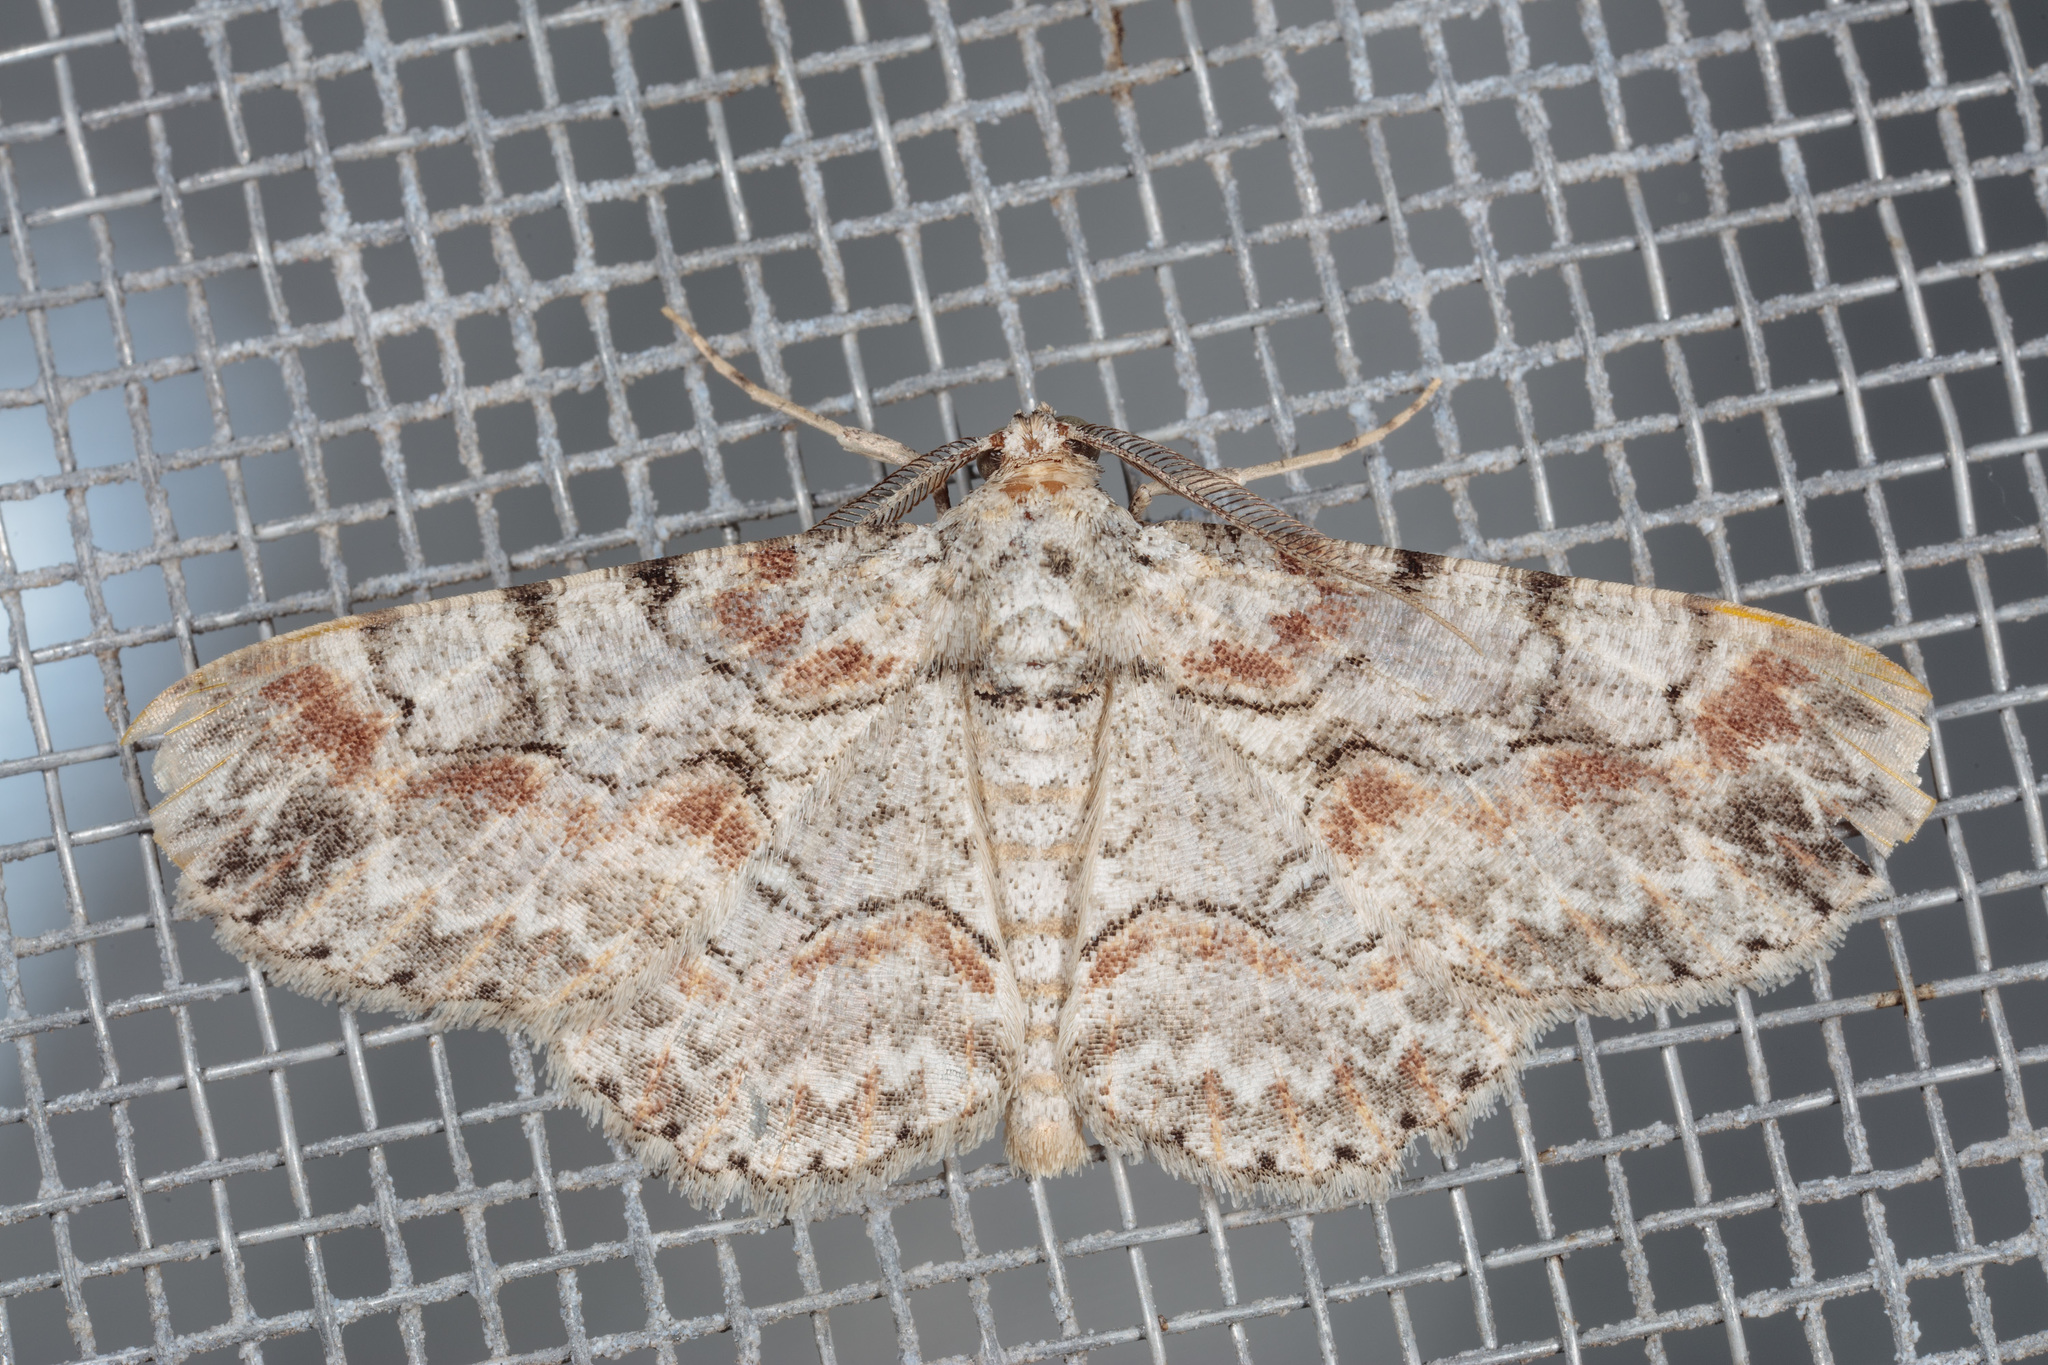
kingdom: Animalia
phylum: Arthropoda
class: Insecta
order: Lepidoptera
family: Geometridae
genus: Iridopsis
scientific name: Iridopsis defectaria
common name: Brown-shaded gray
